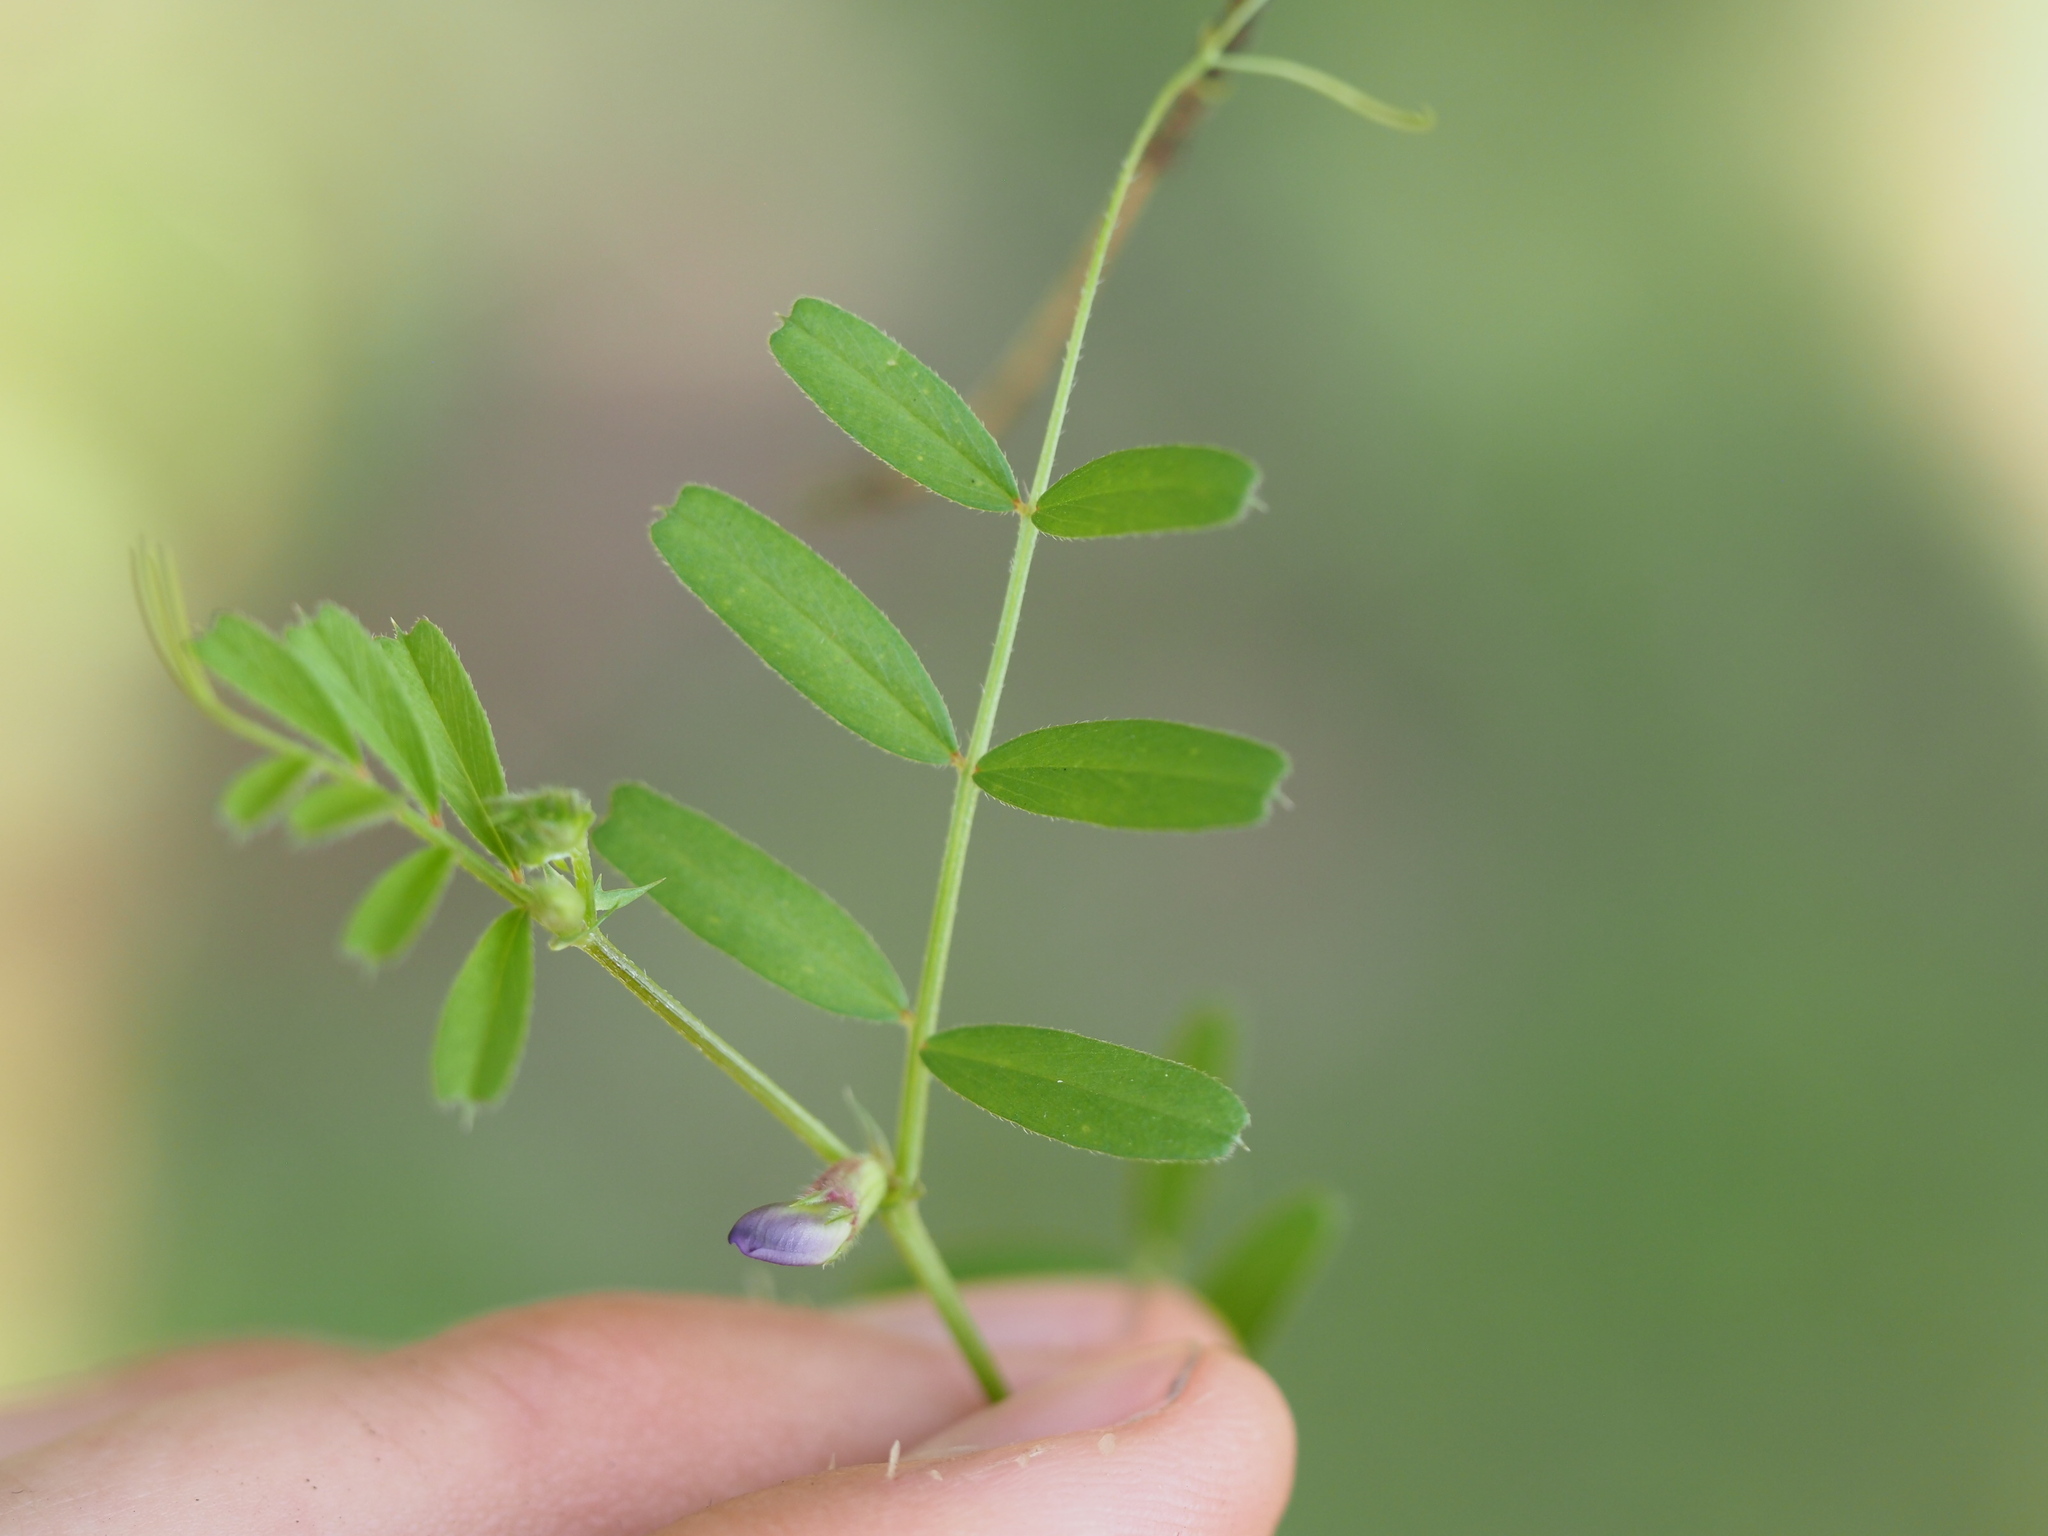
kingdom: Plantae
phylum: Tracheophyta
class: Magnoliopsida
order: Fabales
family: Fabaceae
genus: Vicia
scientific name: Vicia sativa
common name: Garden vetch
